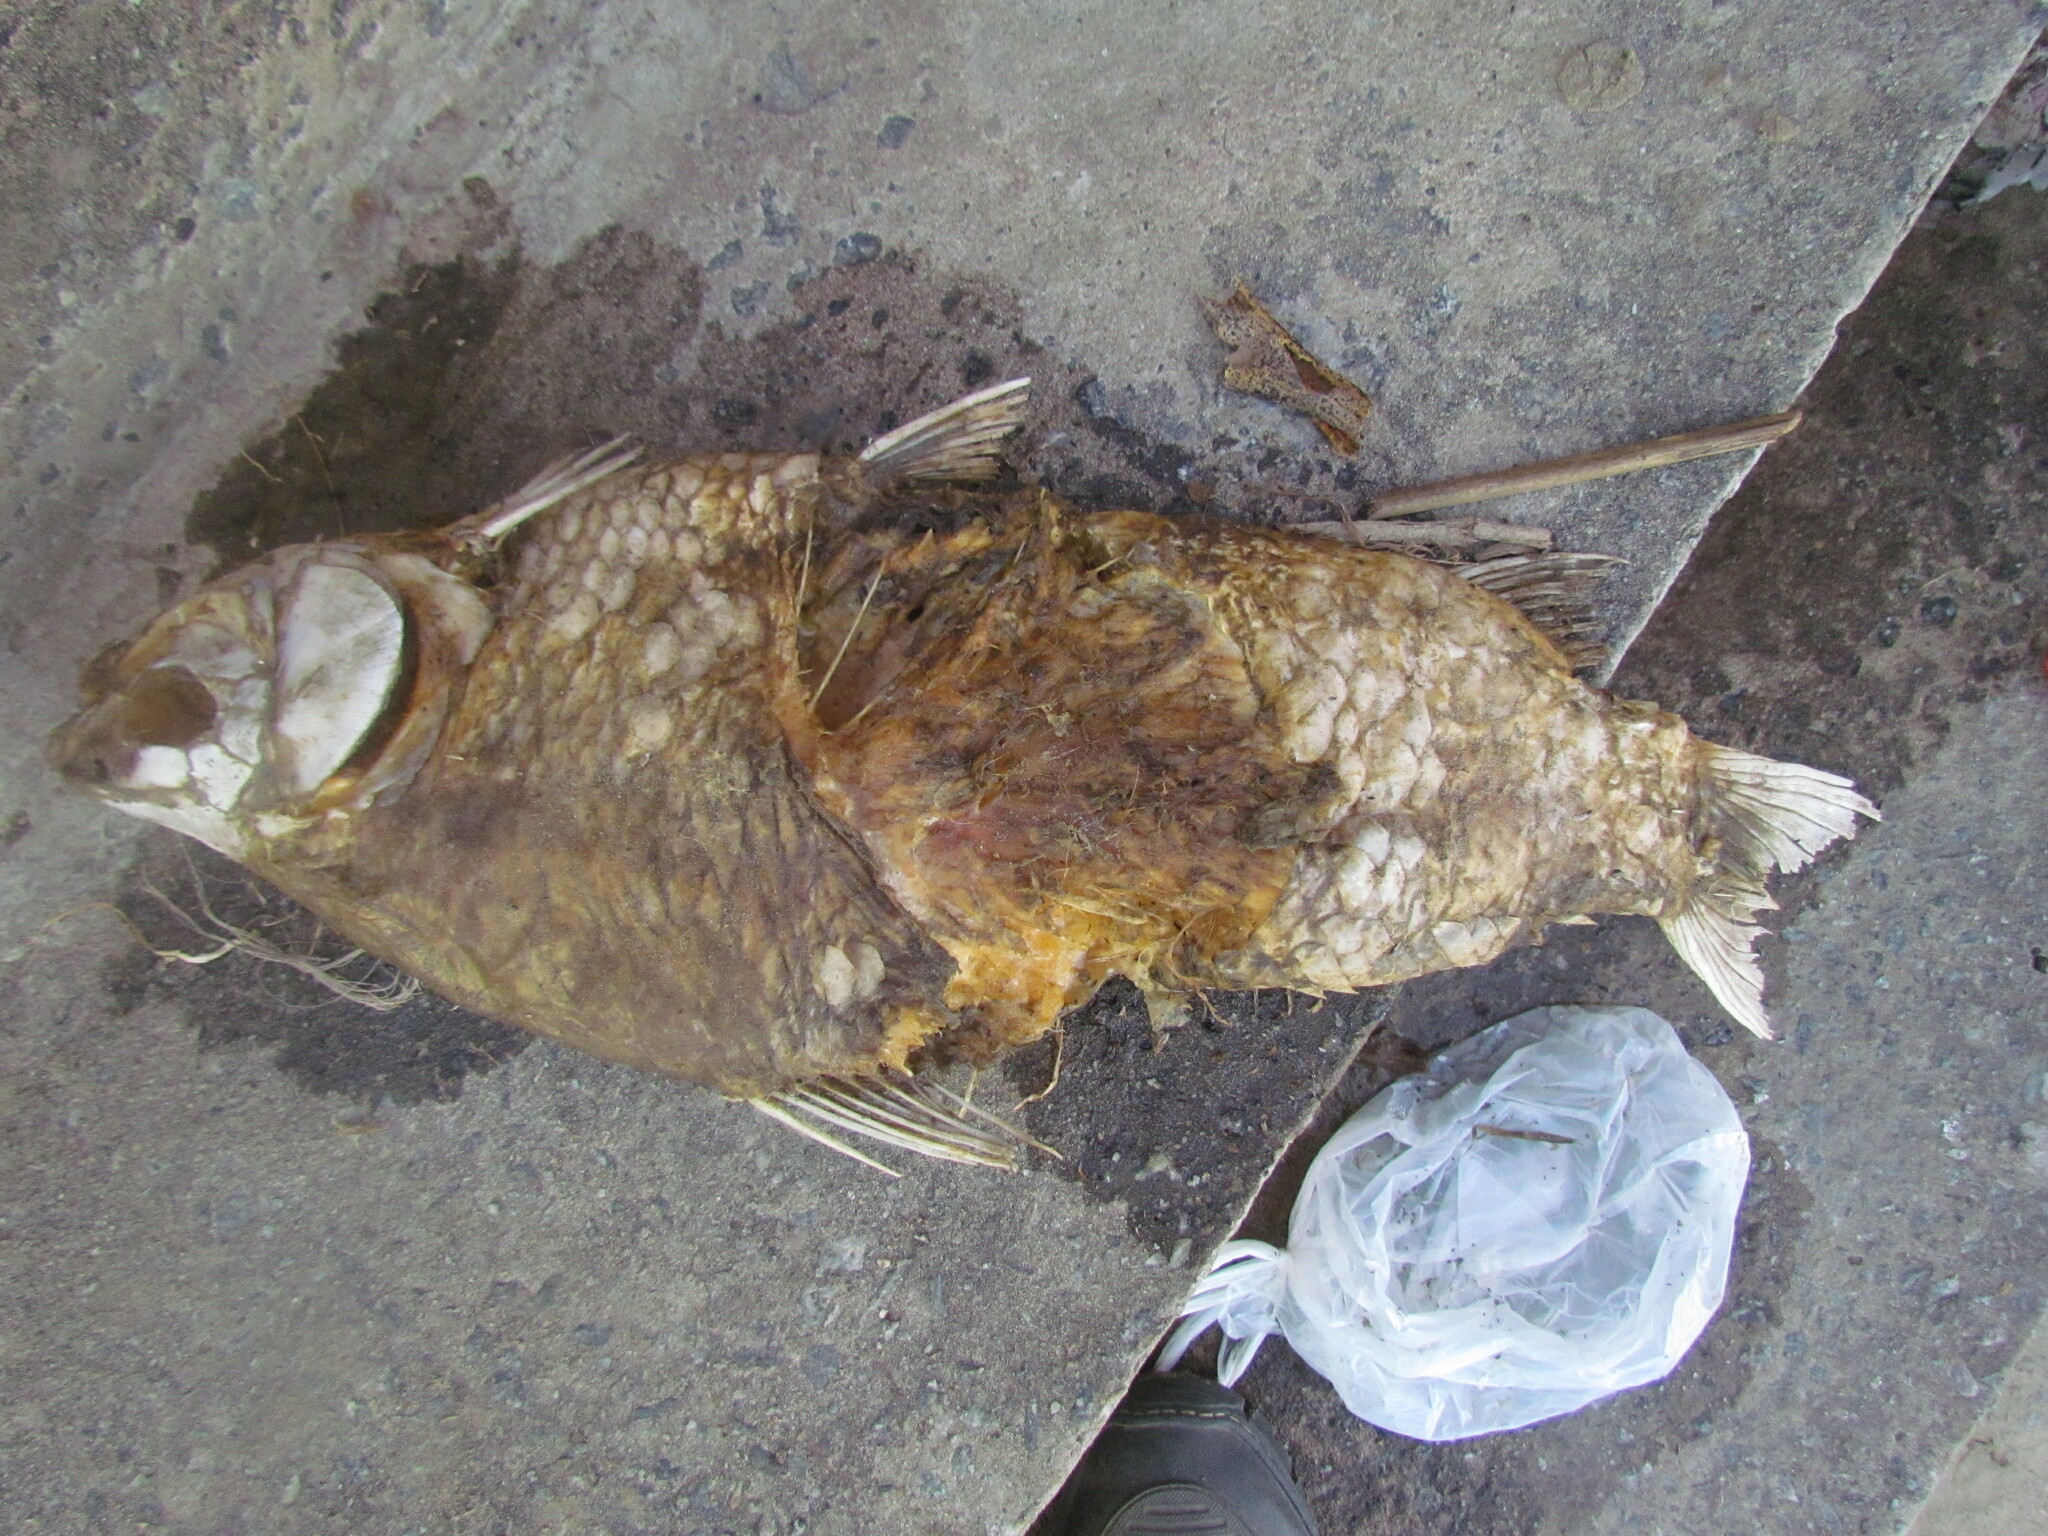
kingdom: Animalia
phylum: Chordata
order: Characiformes
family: Prochilodontidae
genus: Prochilodus
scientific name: Prochilodus lineatus
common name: Curimbata
